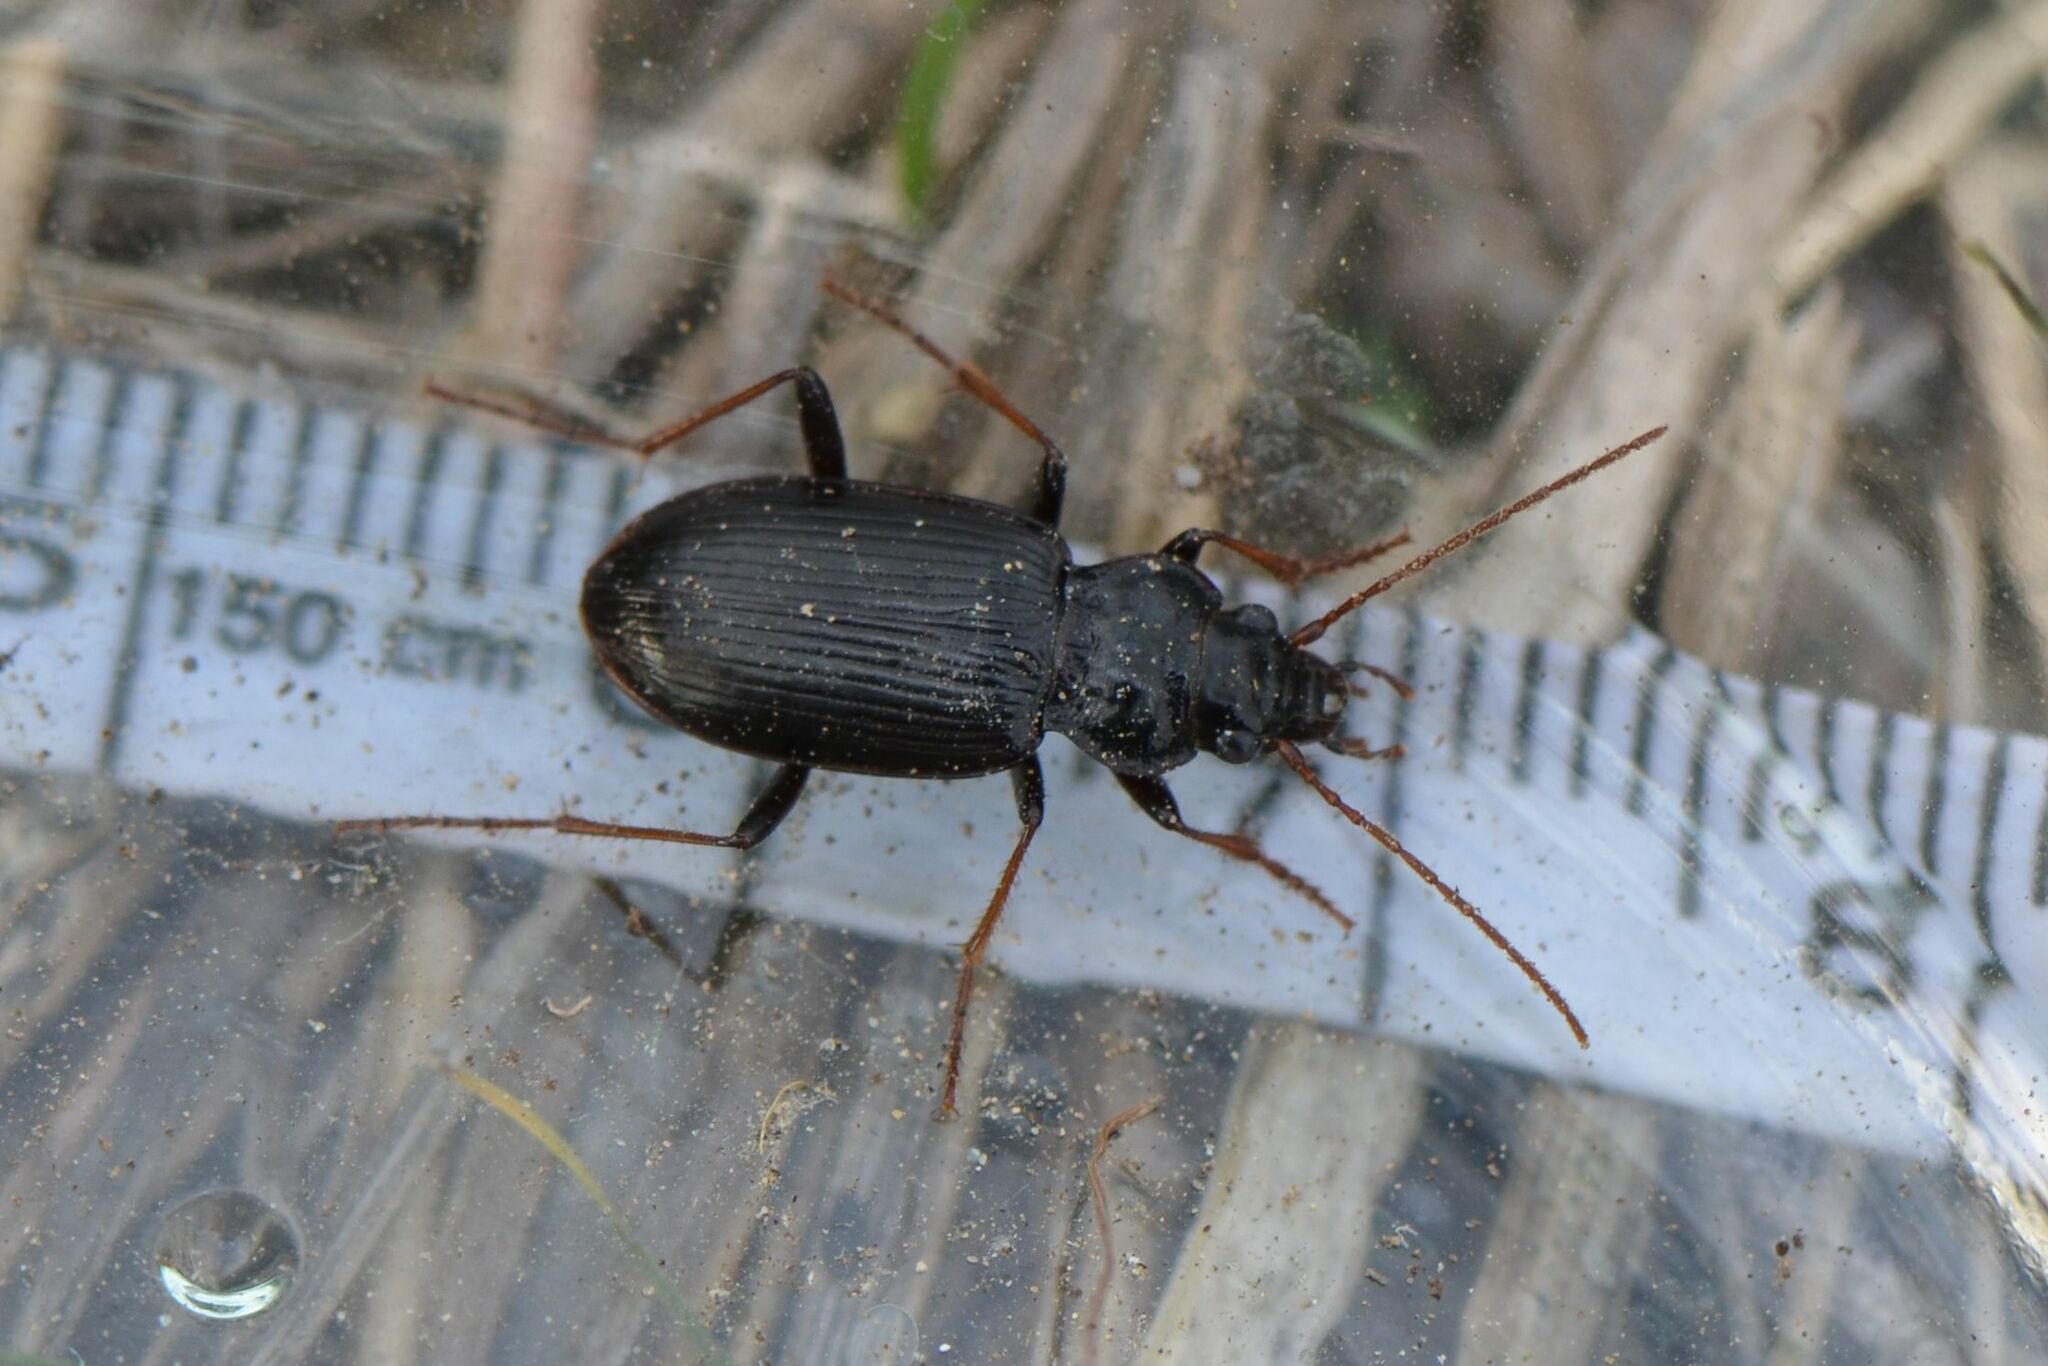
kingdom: Animalia
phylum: Arthropoda
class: Insecta
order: Coleoptera
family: Carabidae
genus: Nebria
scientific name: Nebria salina
